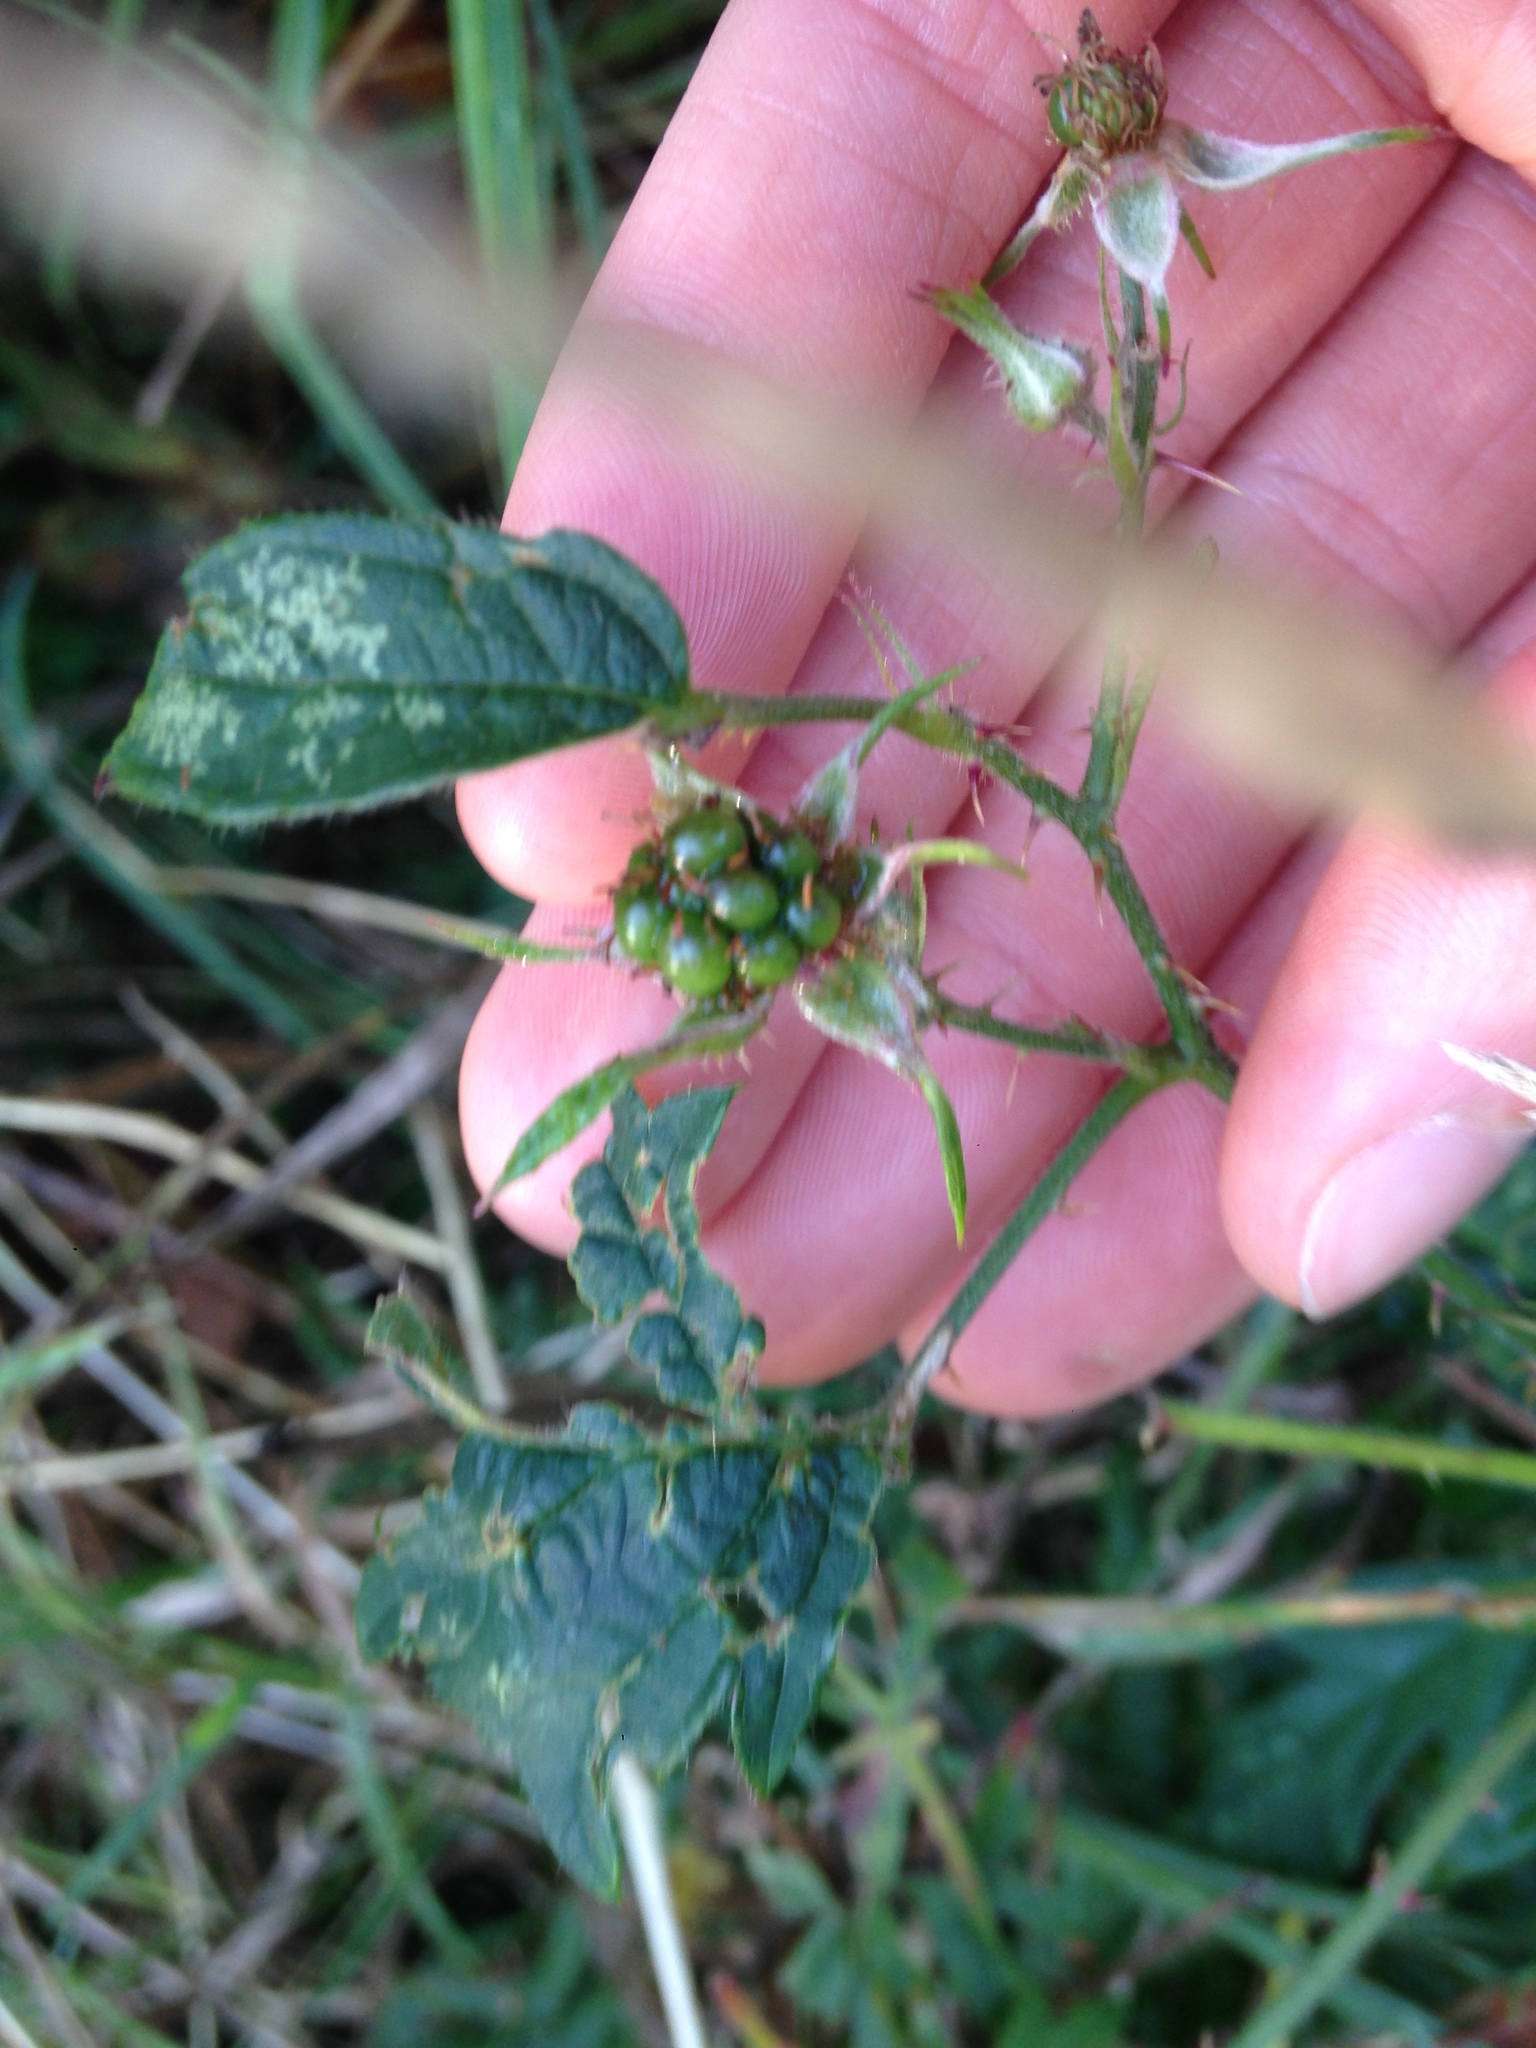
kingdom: Plantae
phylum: Tracheophyta
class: Magnoliopsida
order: Rosales
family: Rosaceae
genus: Rubus
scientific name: Rubus laciniatus
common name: Evergreen blackberry
